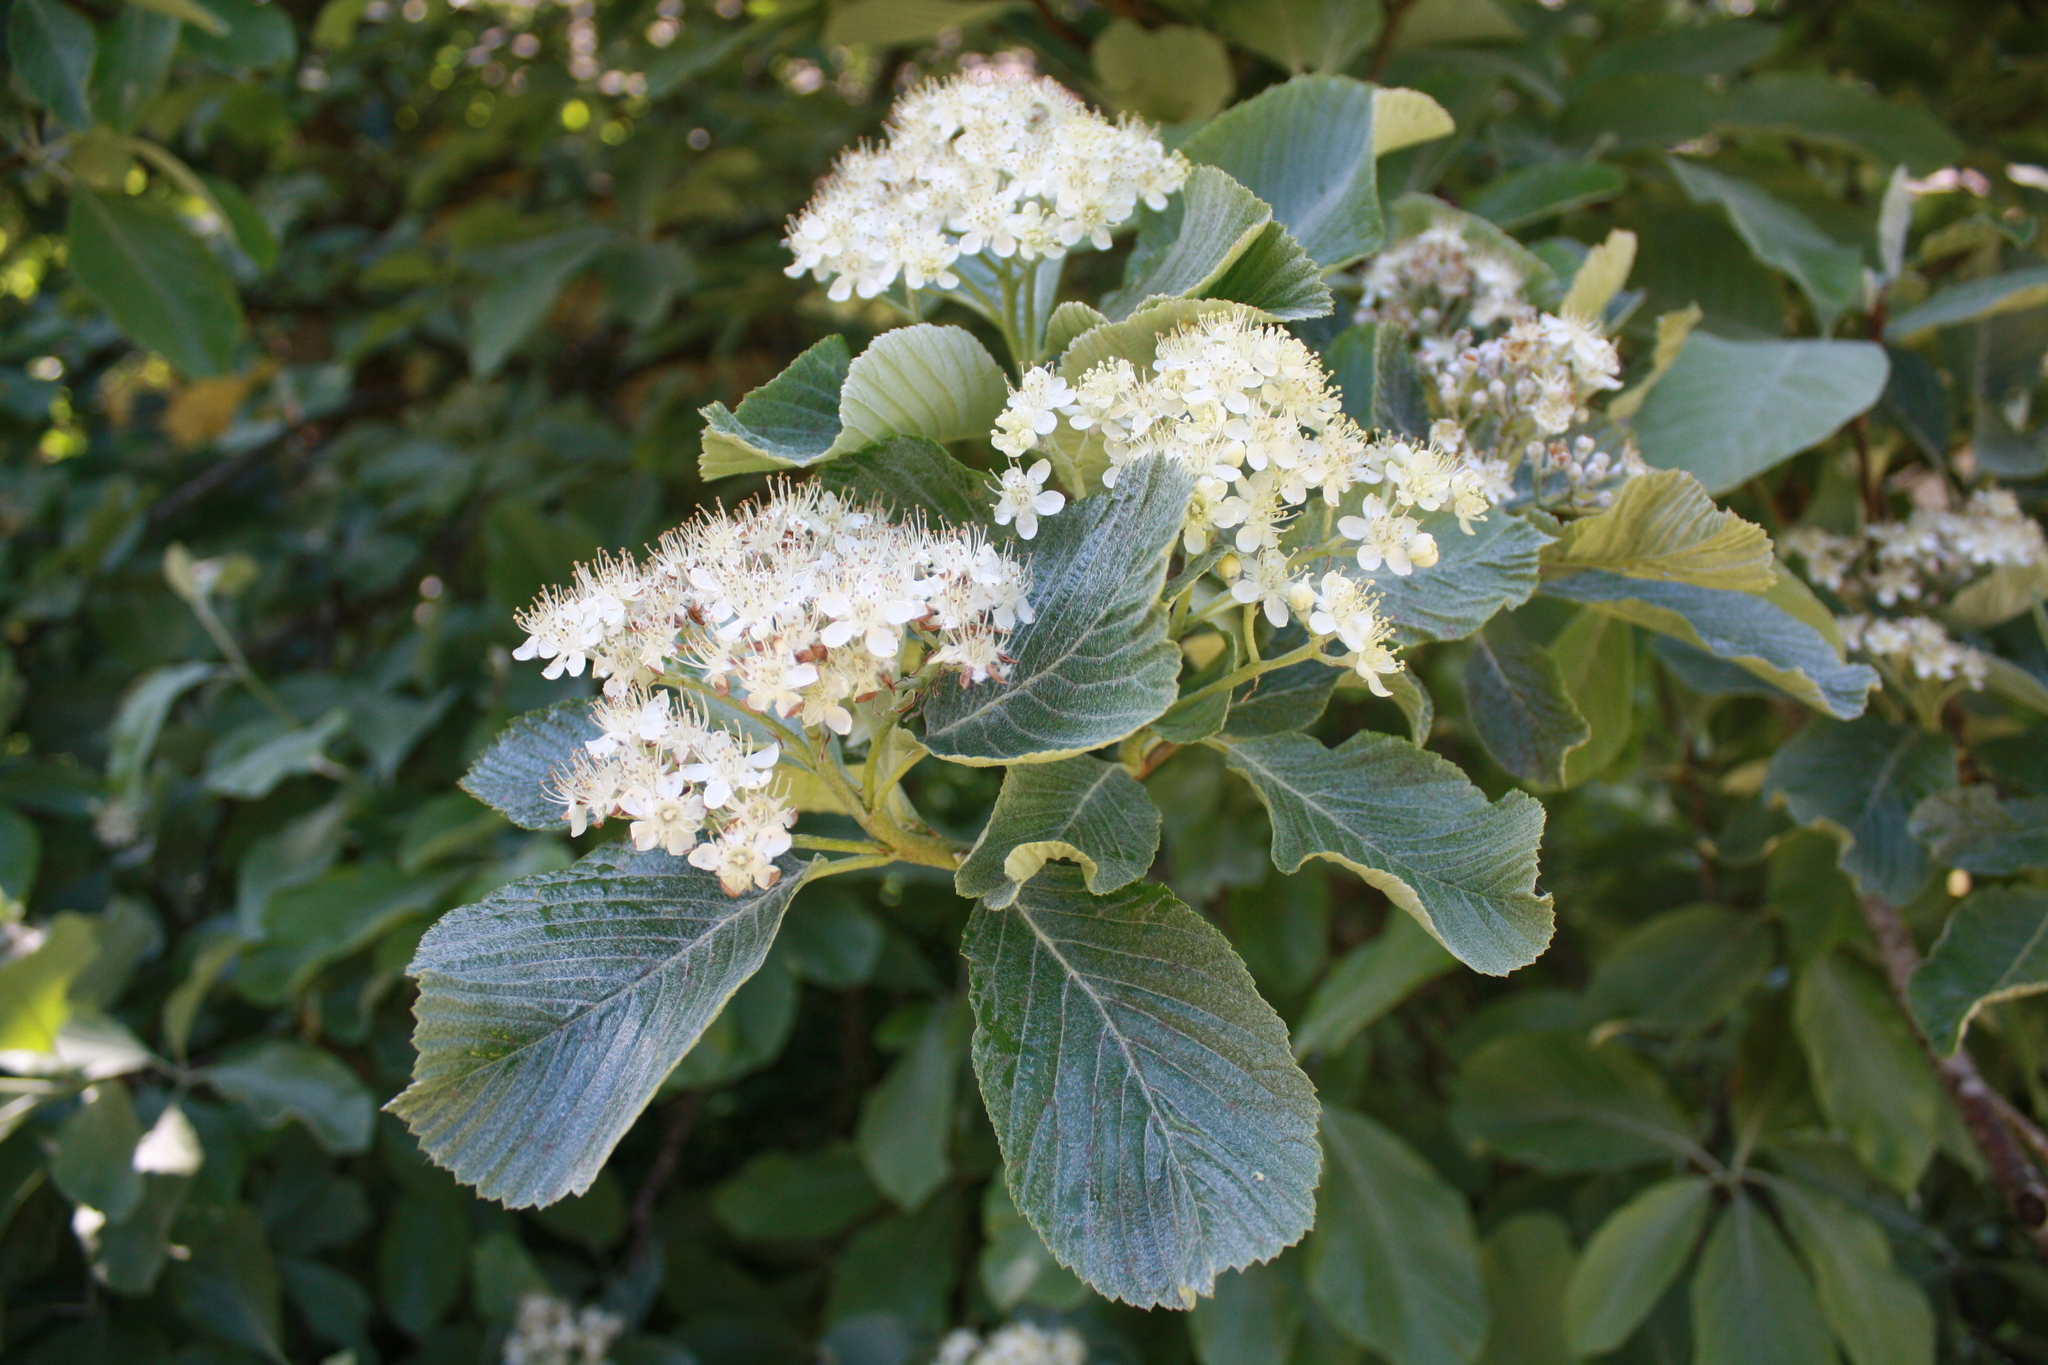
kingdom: Plantae
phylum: Tracheophyta
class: Magnoliopsida
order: Rosales
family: Rosaceae
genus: Aria
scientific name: Aria edulis
